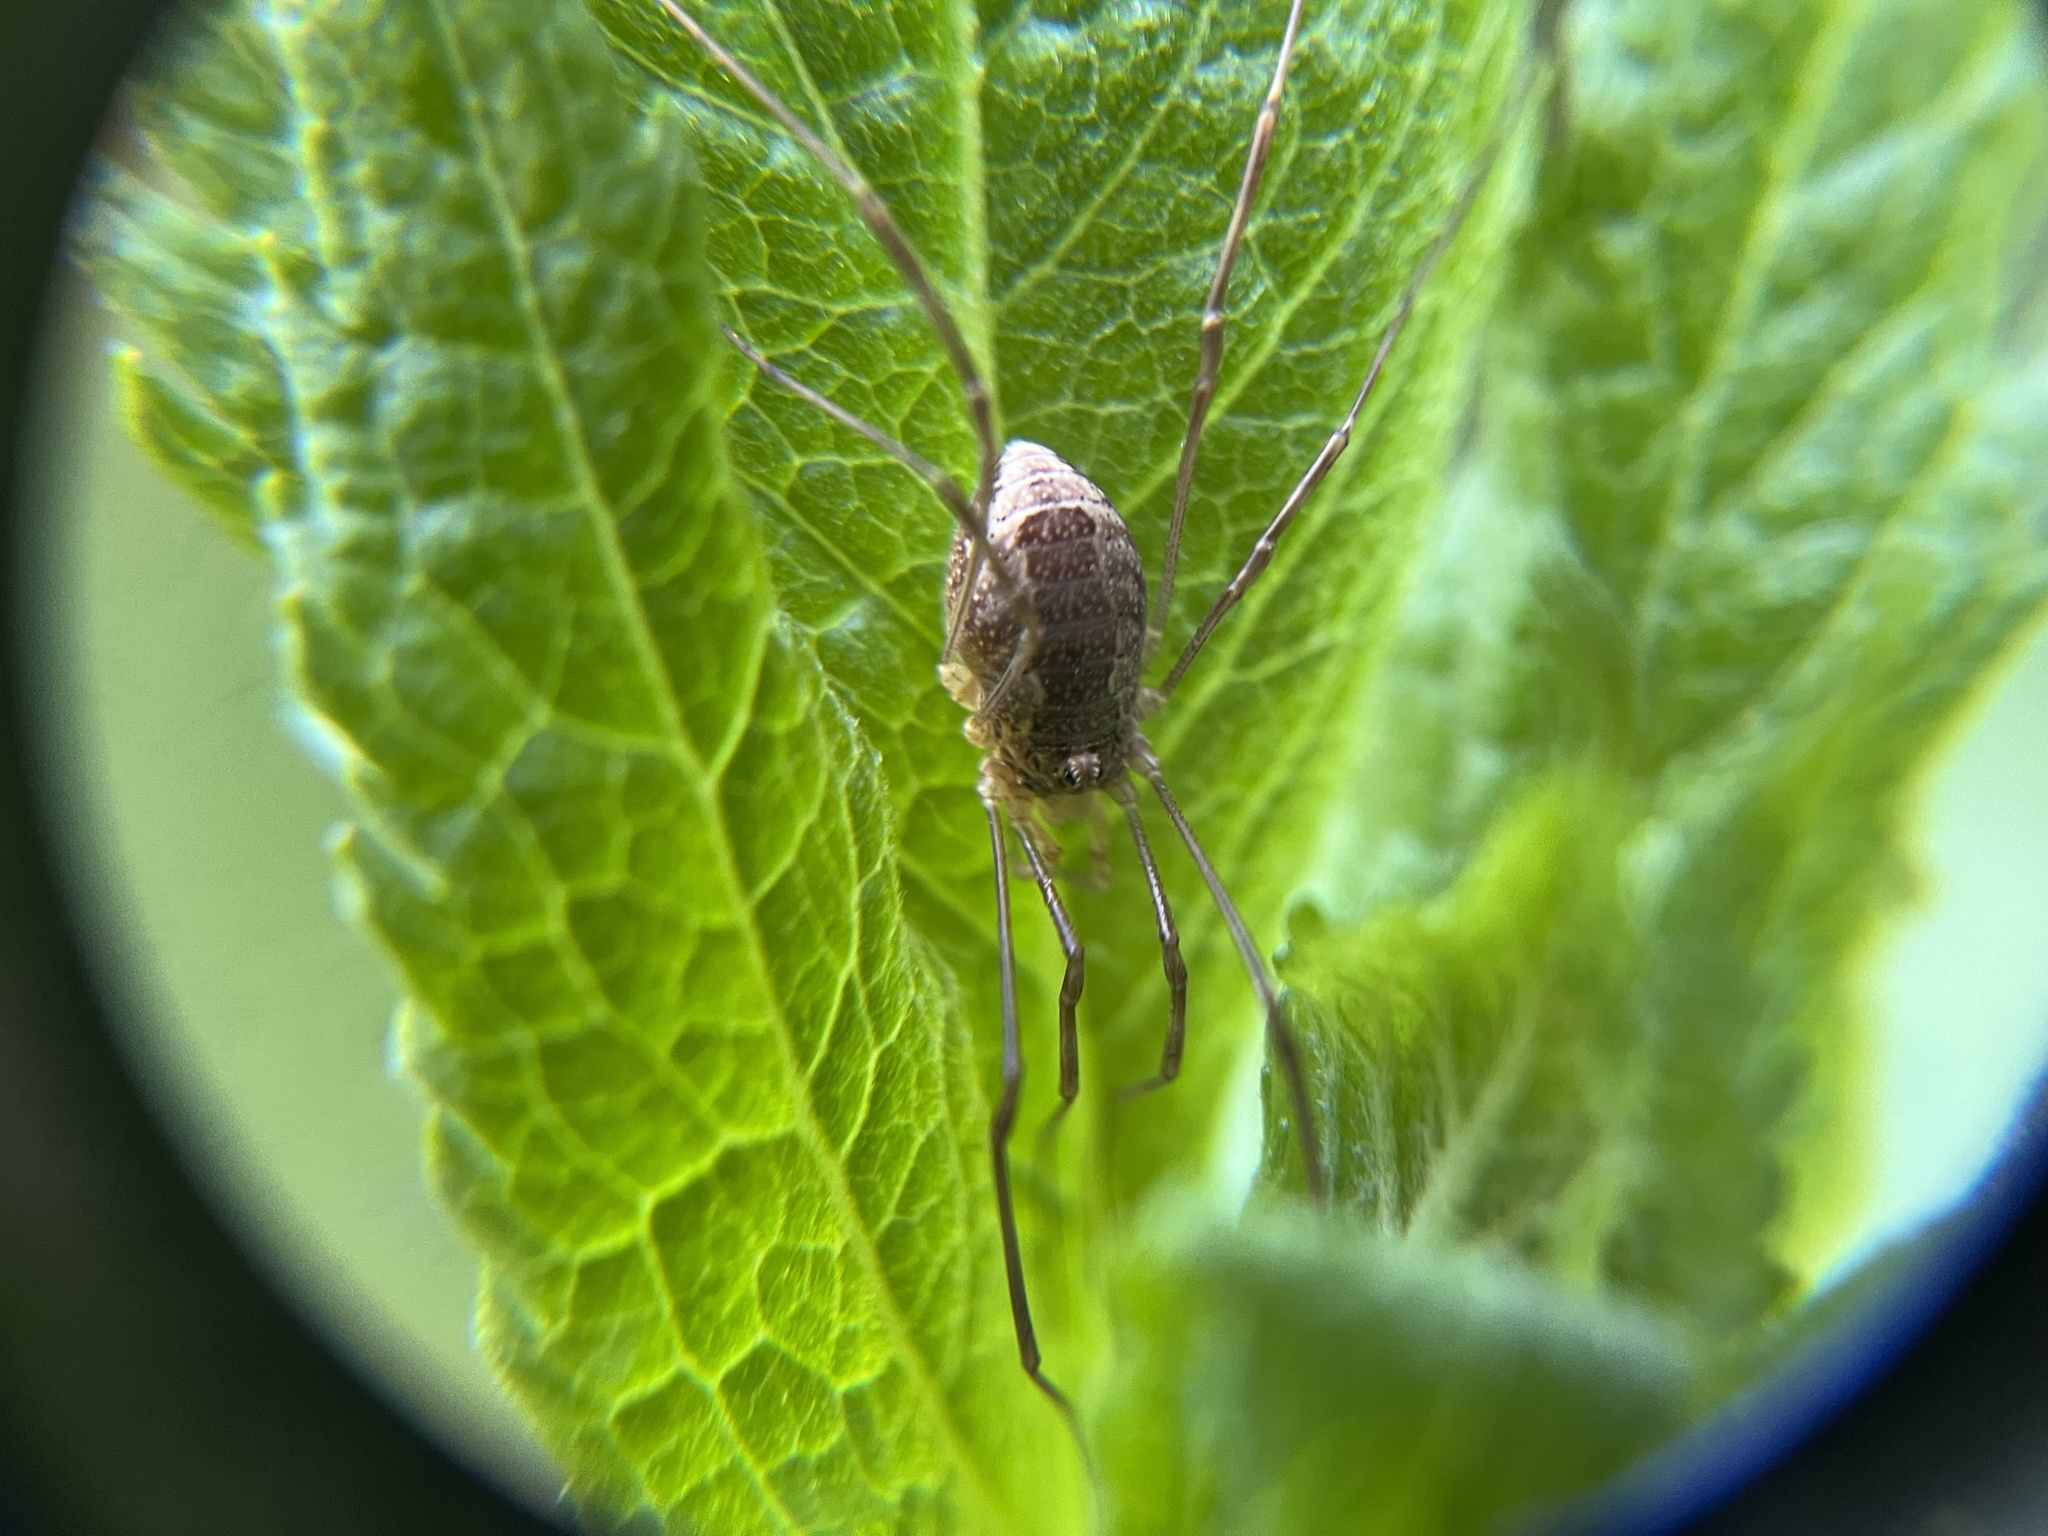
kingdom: Animalia
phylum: Arthropoda
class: Arachnida
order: Opiliones
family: Phalangiidae
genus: Rilaena
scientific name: Rilaena triangularis
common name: Spring harvestman
